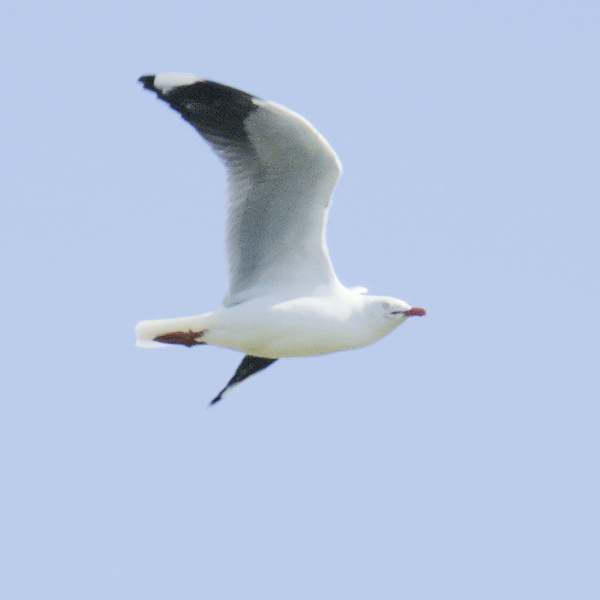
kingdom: Animalia
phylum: Chordata
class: Aves
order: Charadriiformes
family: Laridae
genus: Chroicocephalus
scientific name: Chroicocephalus novaehollandiae
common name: Silver gull
